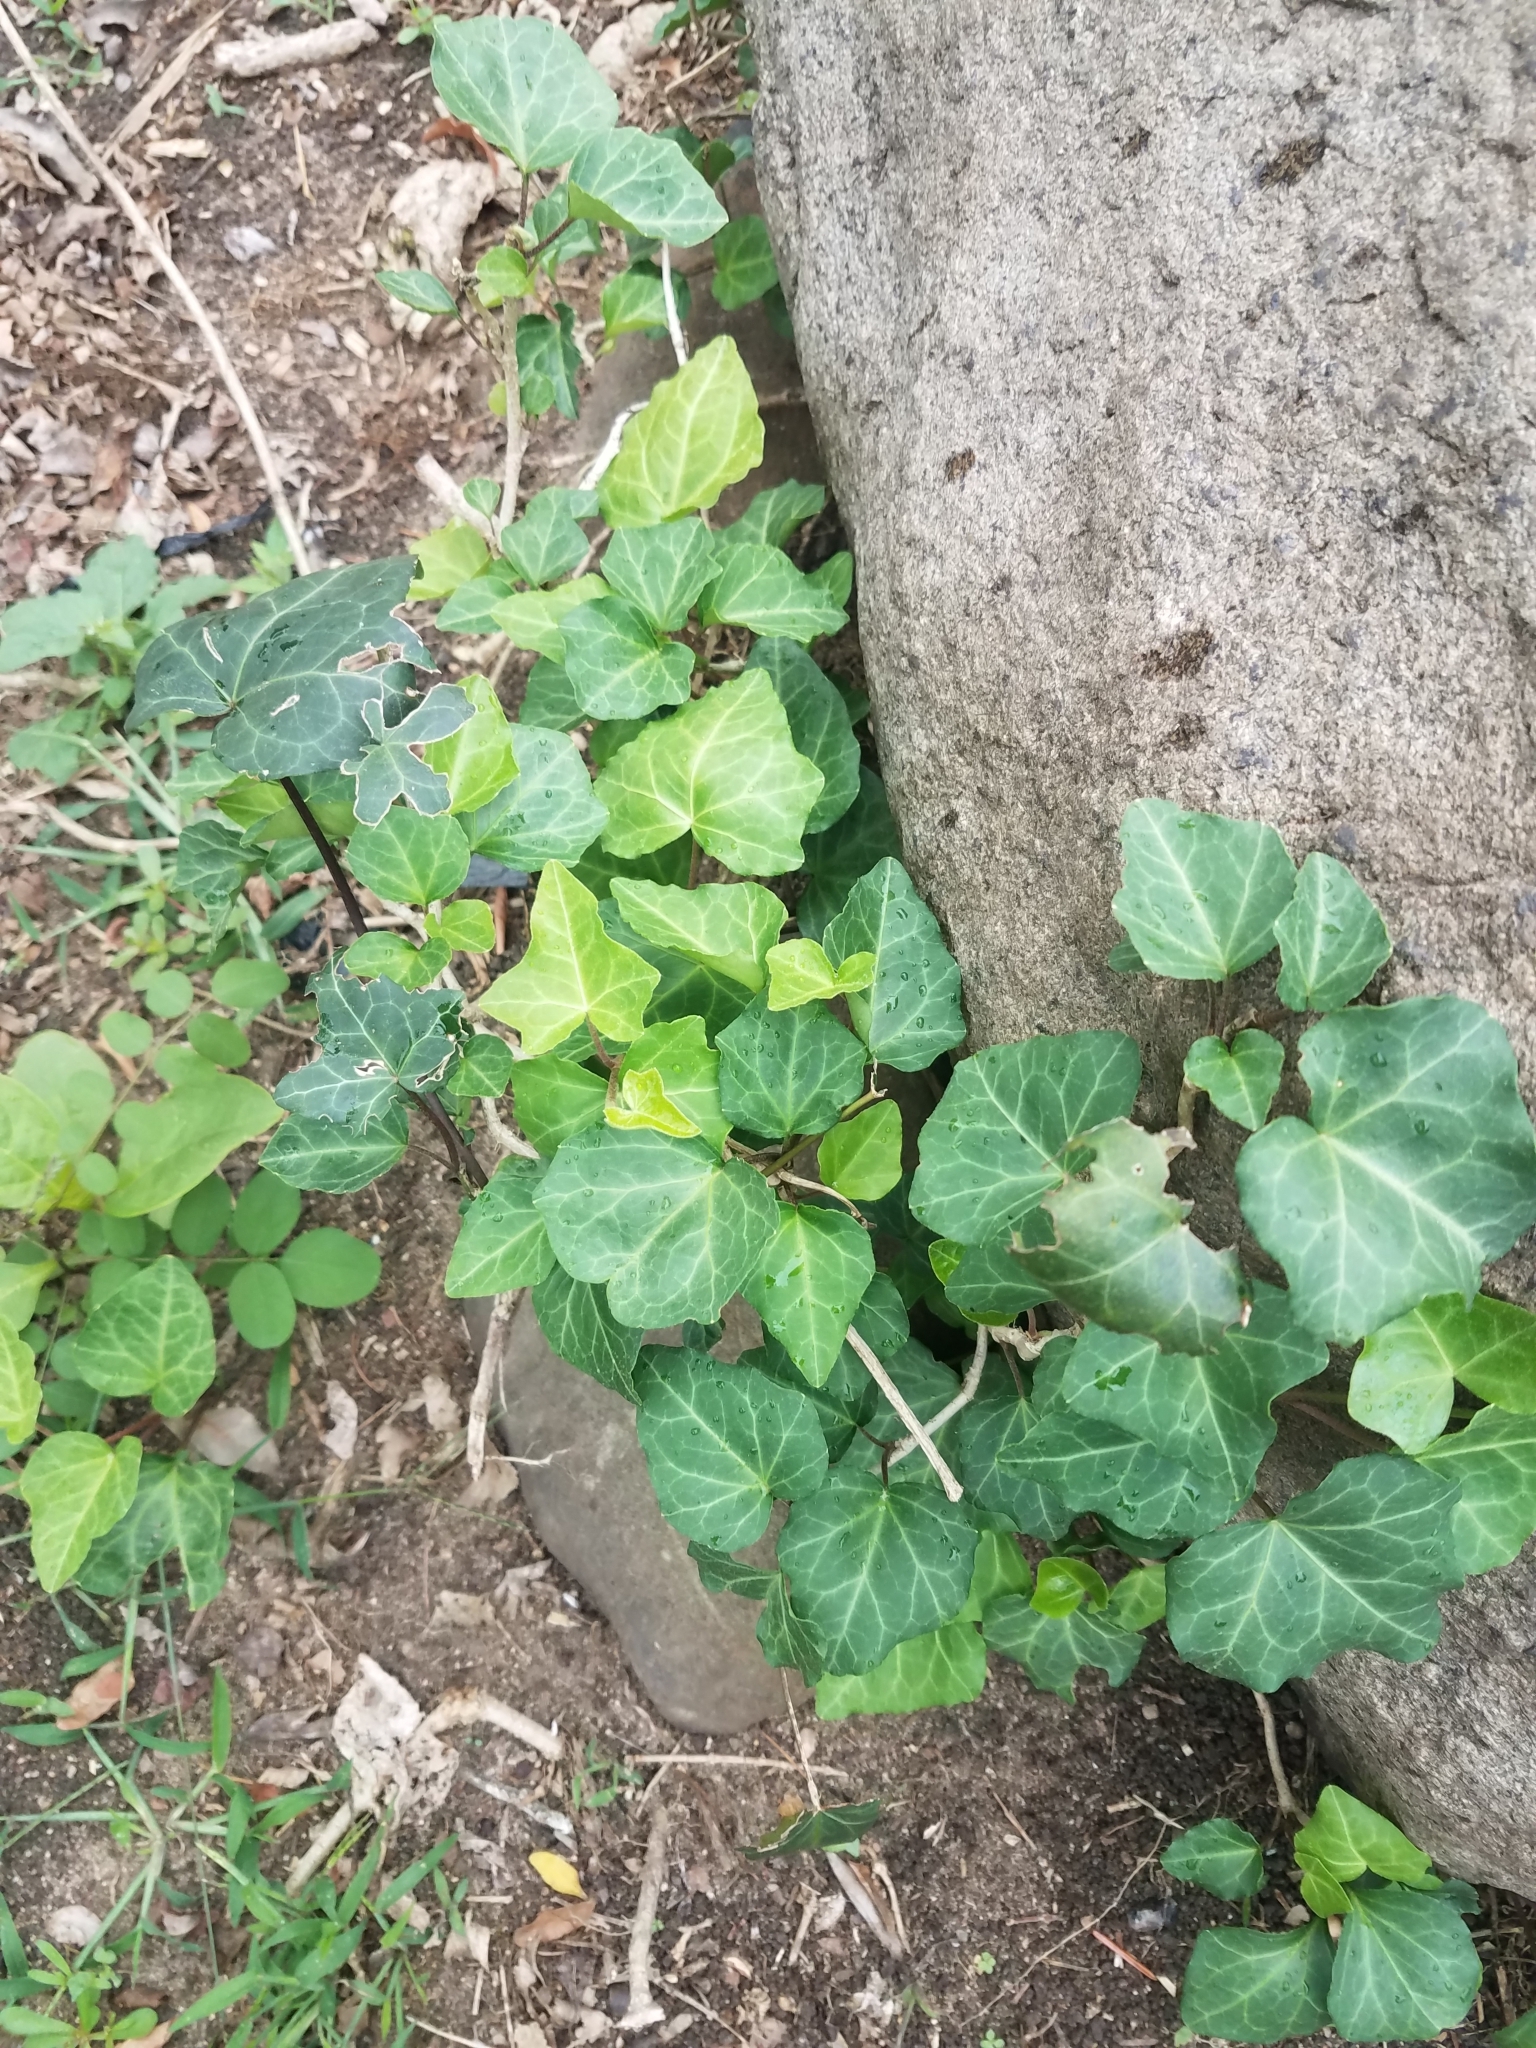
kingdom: Plantae
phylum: Tracheophyta
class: Magnoliopsida
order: Apiales
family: Araliaceae
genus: Hedera
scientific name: Hedera helix
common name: Ivy
